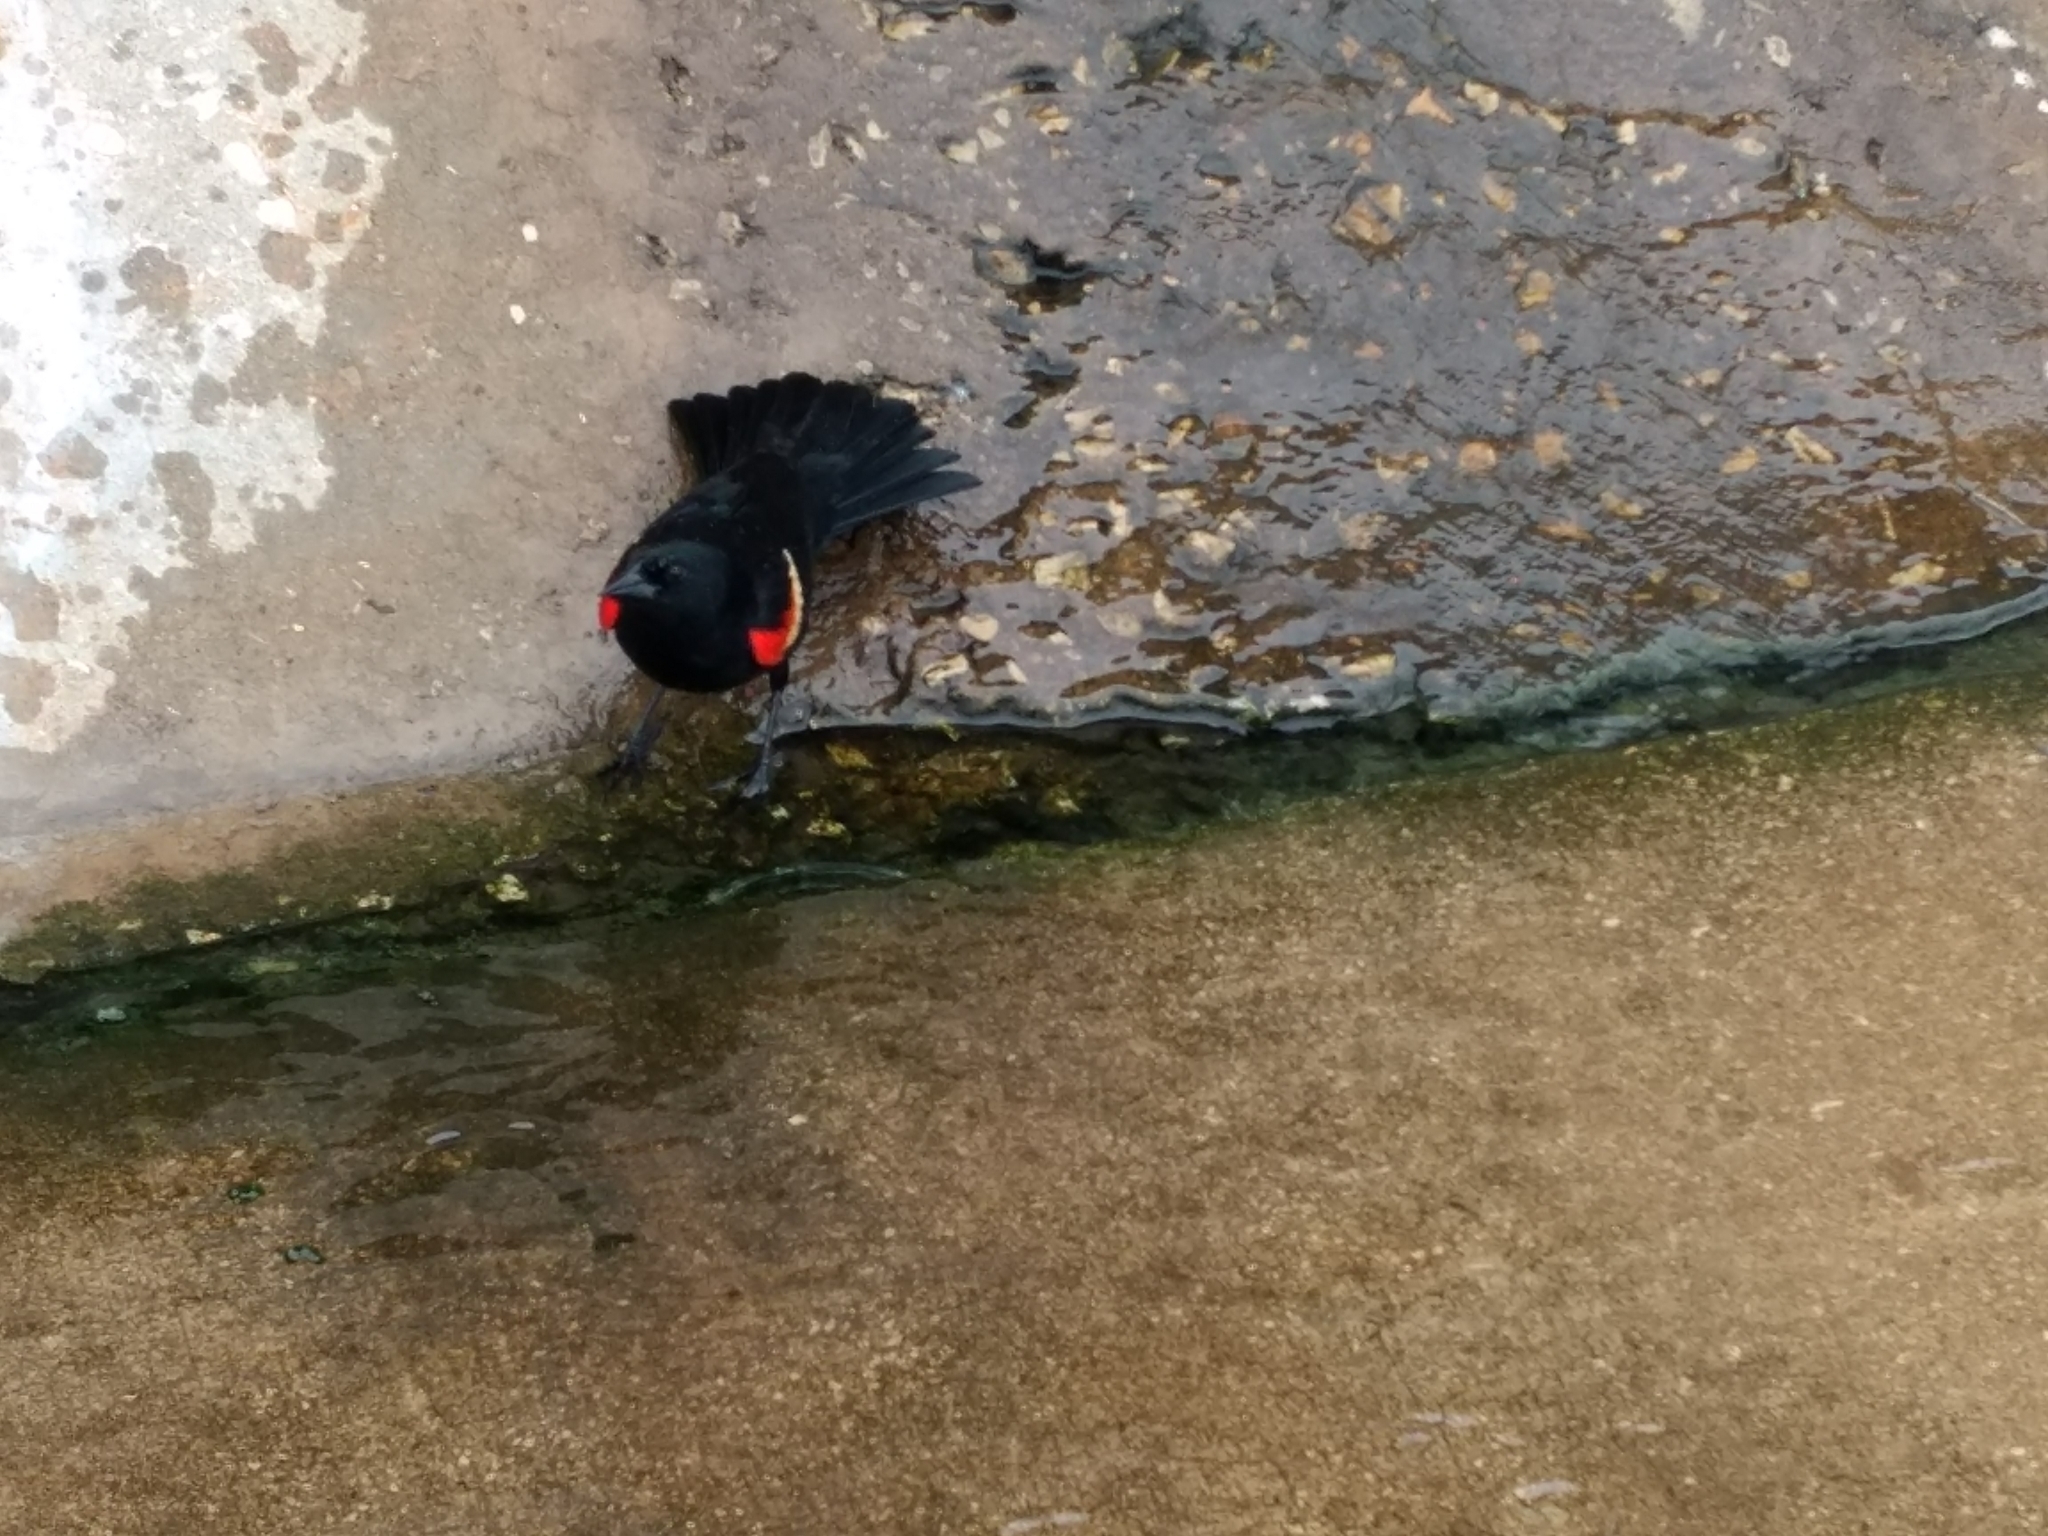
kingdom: Animalia
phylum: Chordata
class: Aves
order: Passeriformes
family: Icteridae
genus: Agelaius
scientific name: Agelaius phoeniceus
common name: Red-winged blackbird
